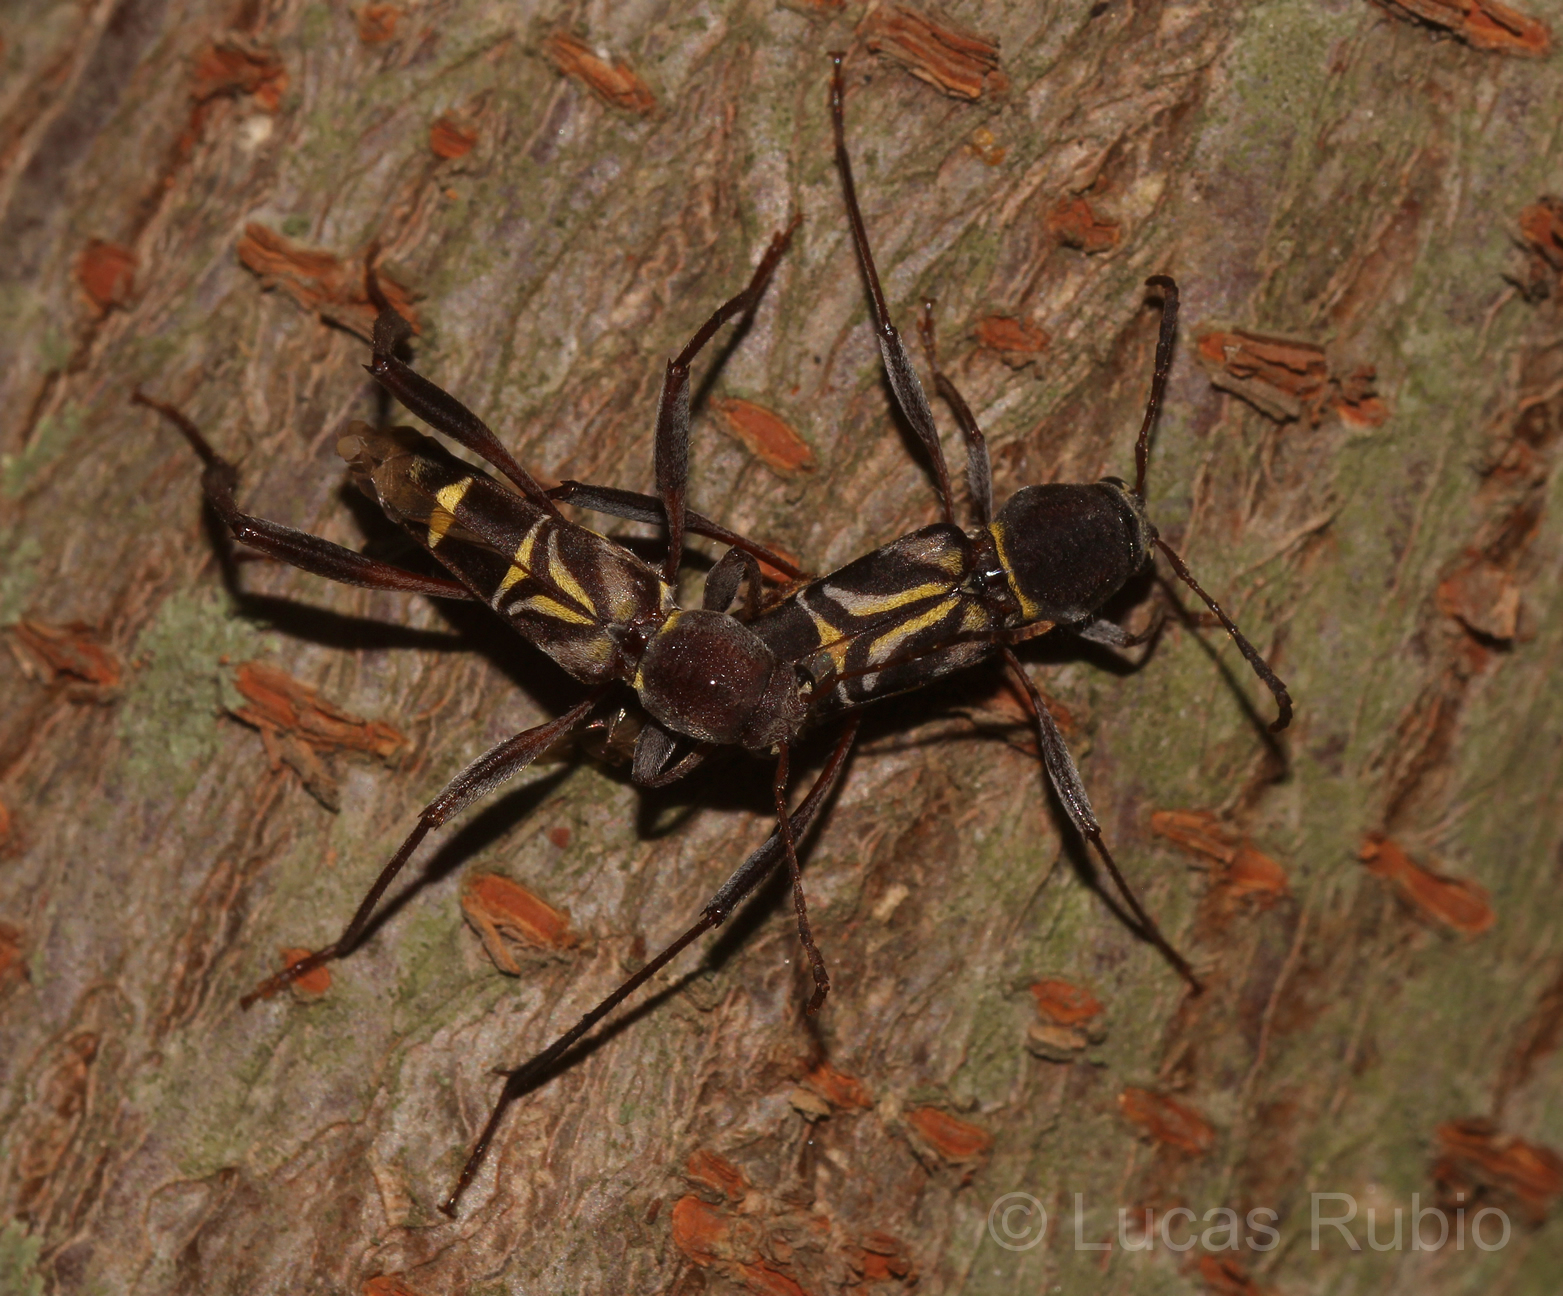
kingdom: Animalia
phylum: Arthropoda
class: Insecta
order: Coleoptera
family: Cerambycidae
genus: Neoclytus
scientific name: Neoclytus pusillus
